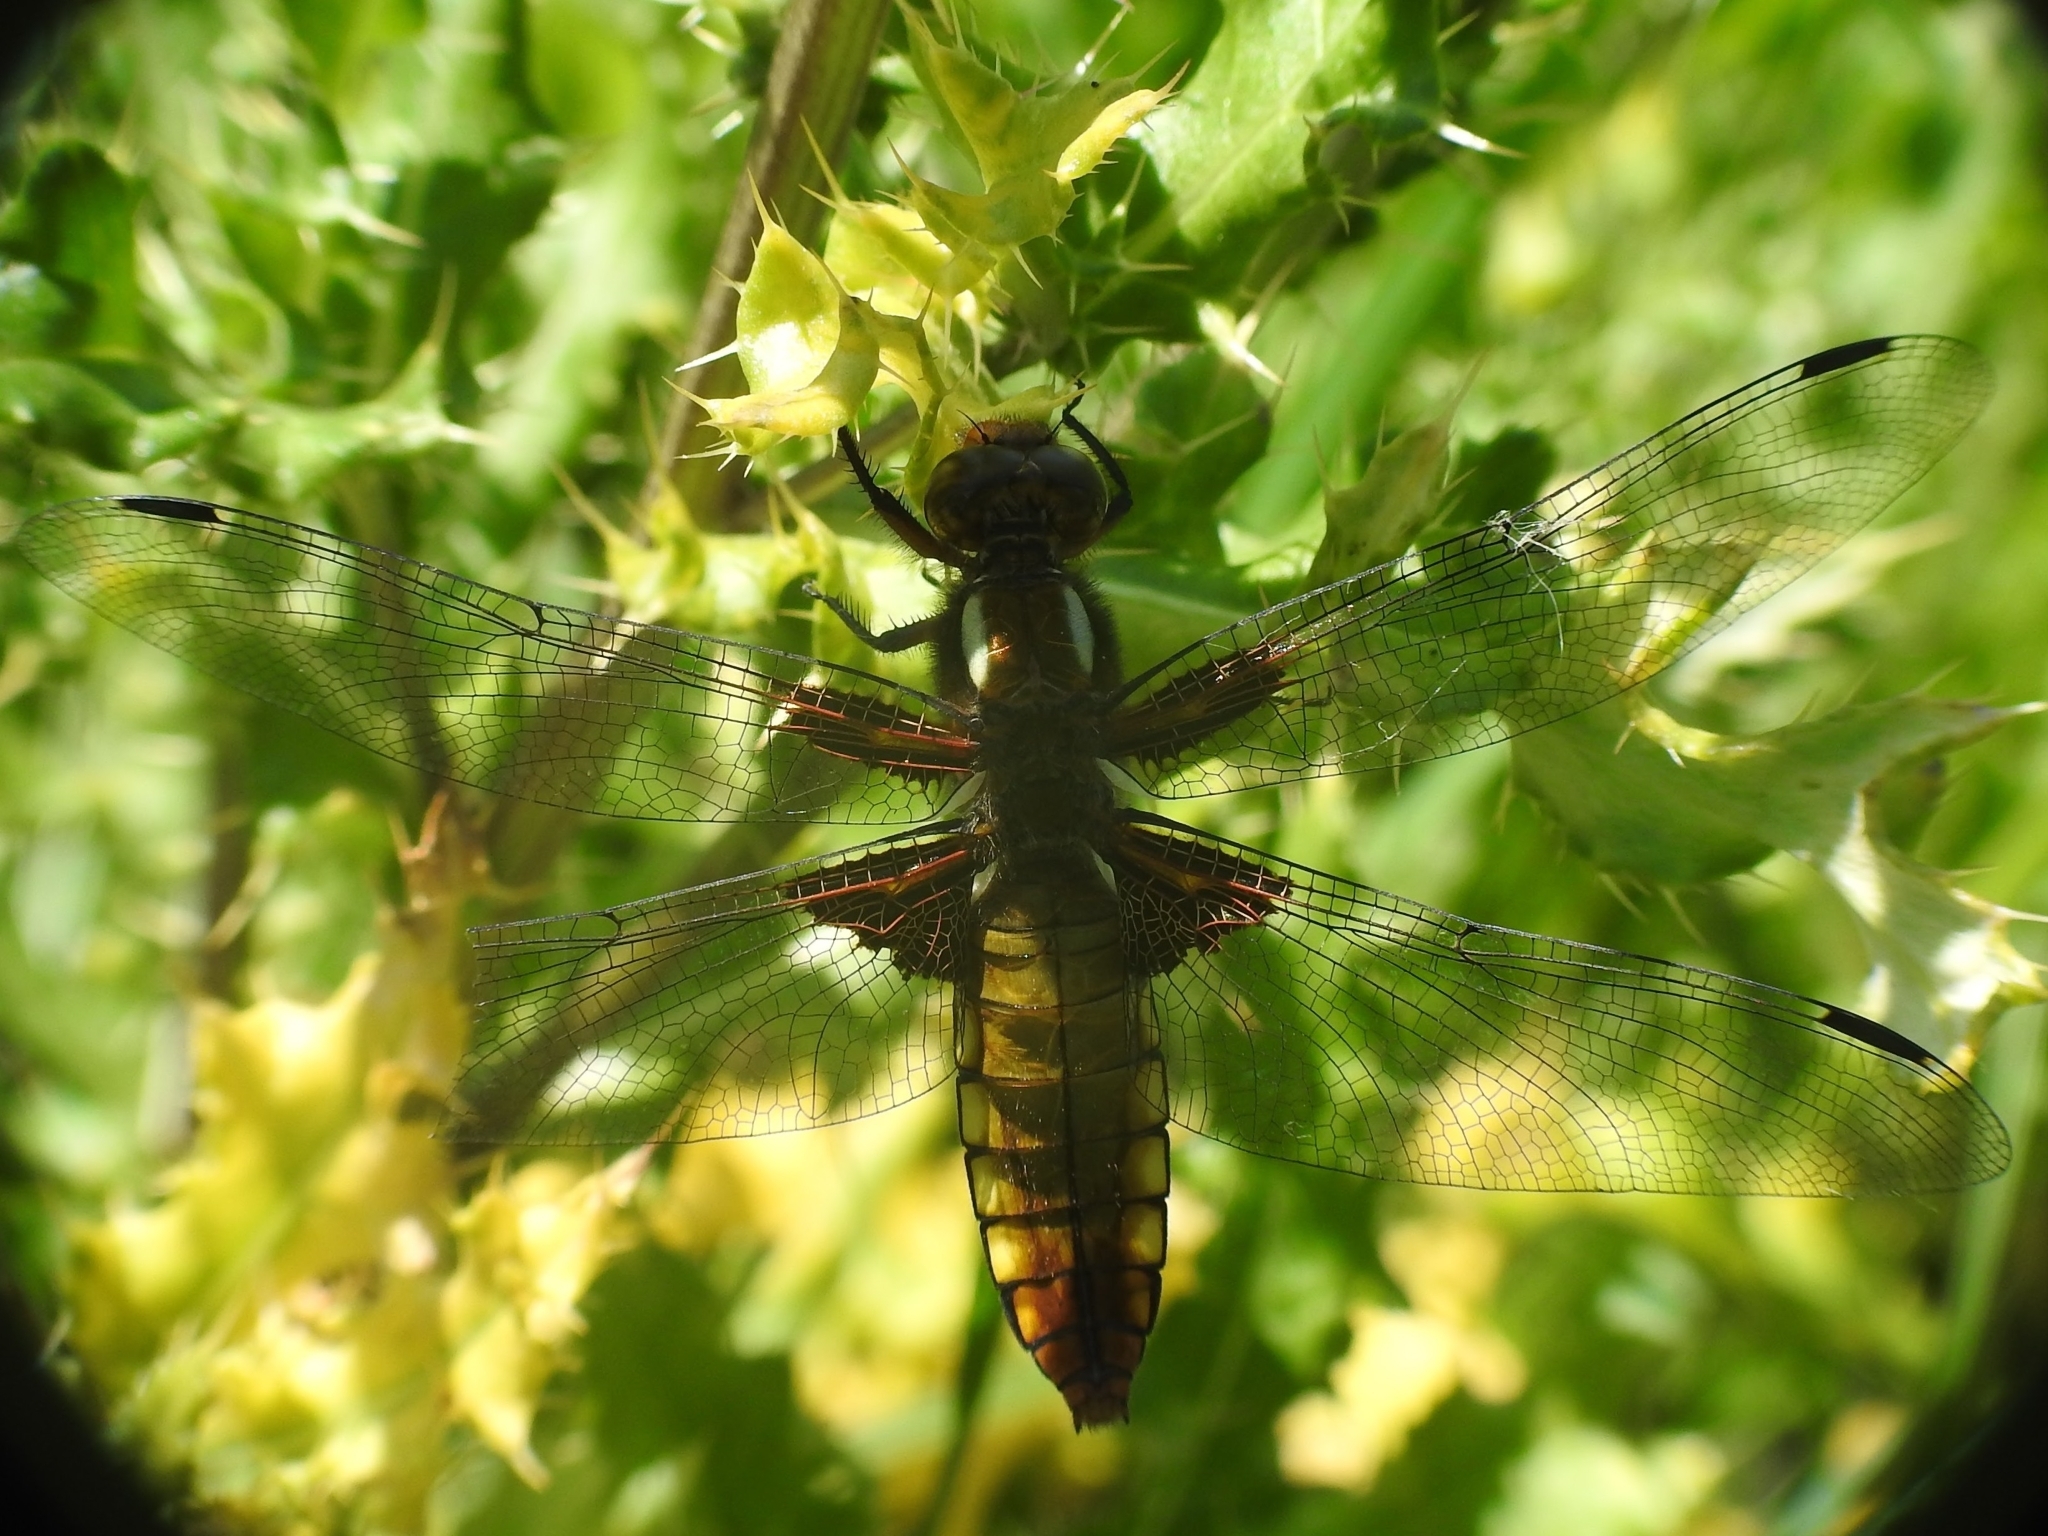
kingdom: Animalia
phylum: Arthropoda
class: Insecta
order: Odonata
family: Libellulidae
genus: Libellula
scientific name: Libellula depressa
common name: Broad-bodied chaser
